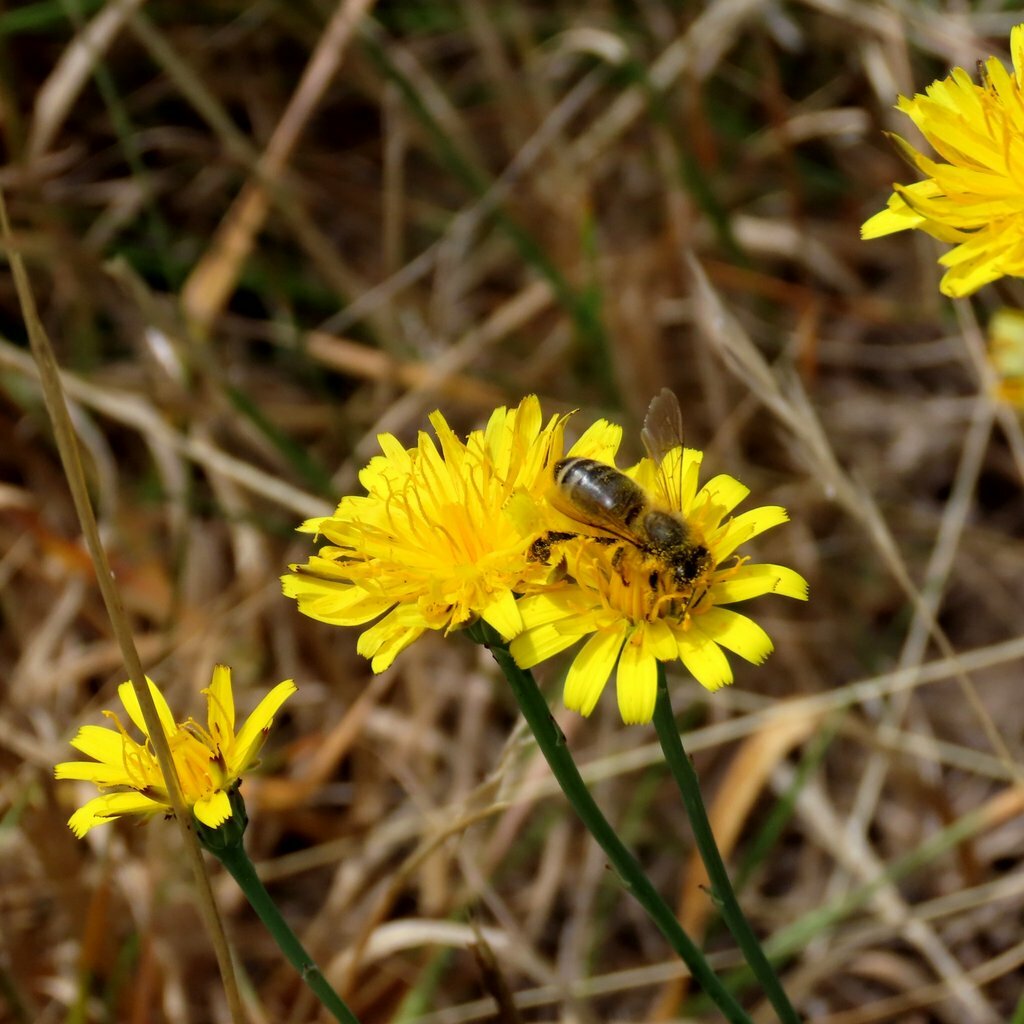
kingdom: Animalia
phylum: Arthropoda
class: Insecta
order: Hymenoptera
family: Apidae
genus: Apis
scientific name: Apis mellifera
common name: Honey bee
